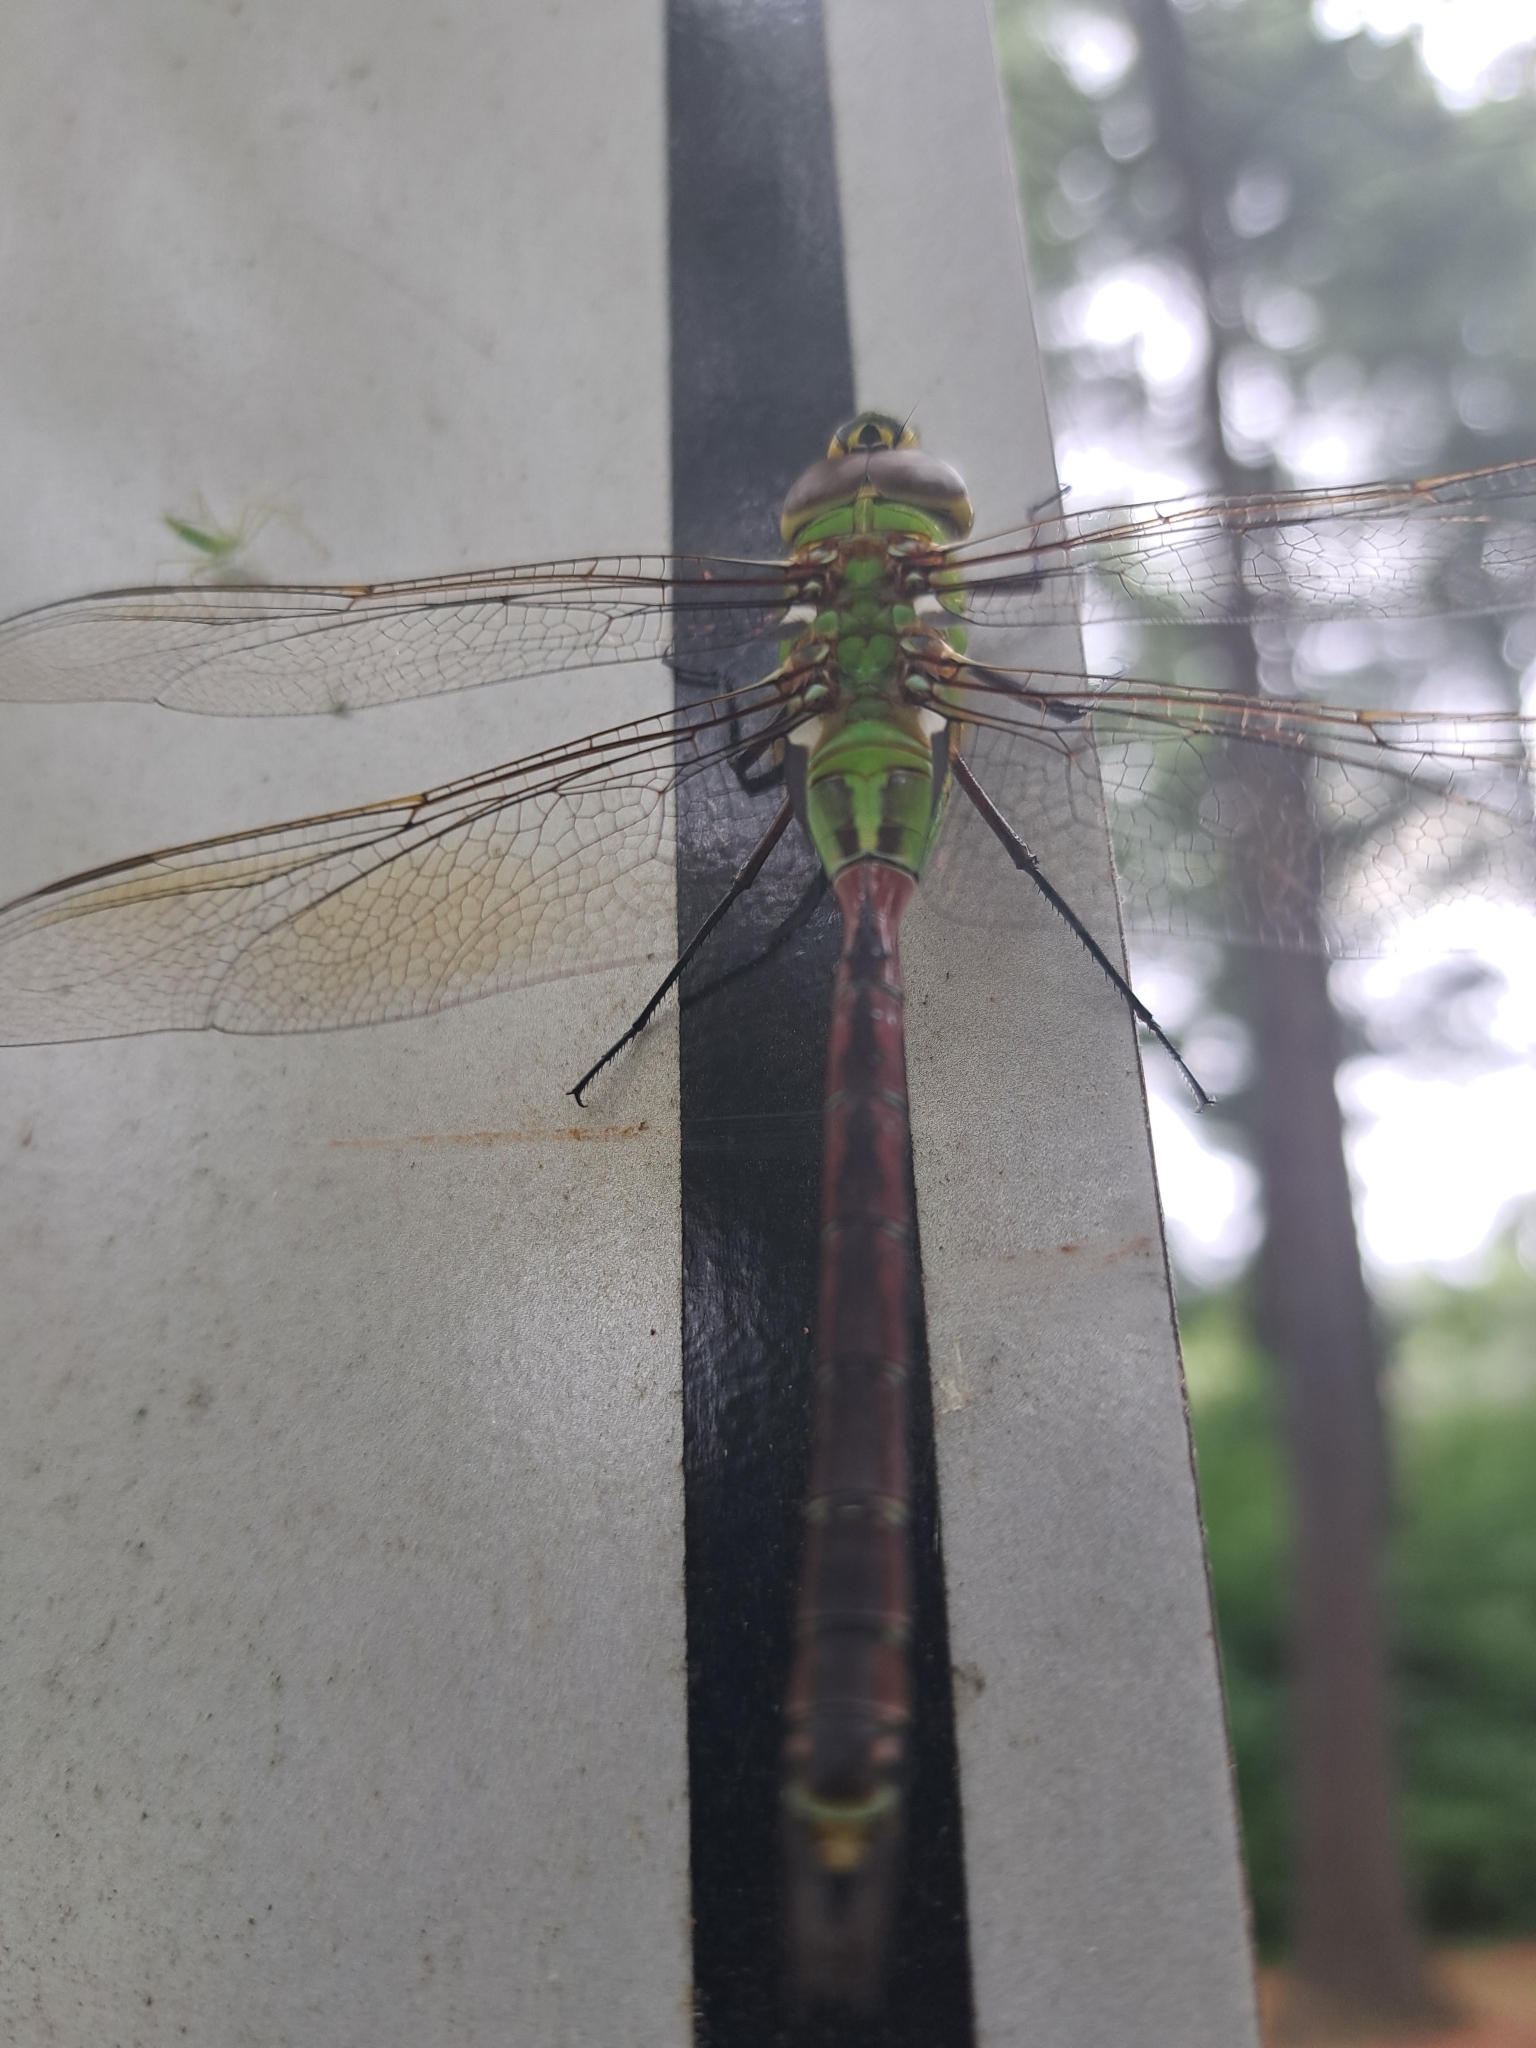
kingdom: Animalia
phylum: Arthropoda
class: Insecta
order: Odonata
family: Aeshnidae
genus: Anax
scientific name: Anax junius
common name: Common green darner
